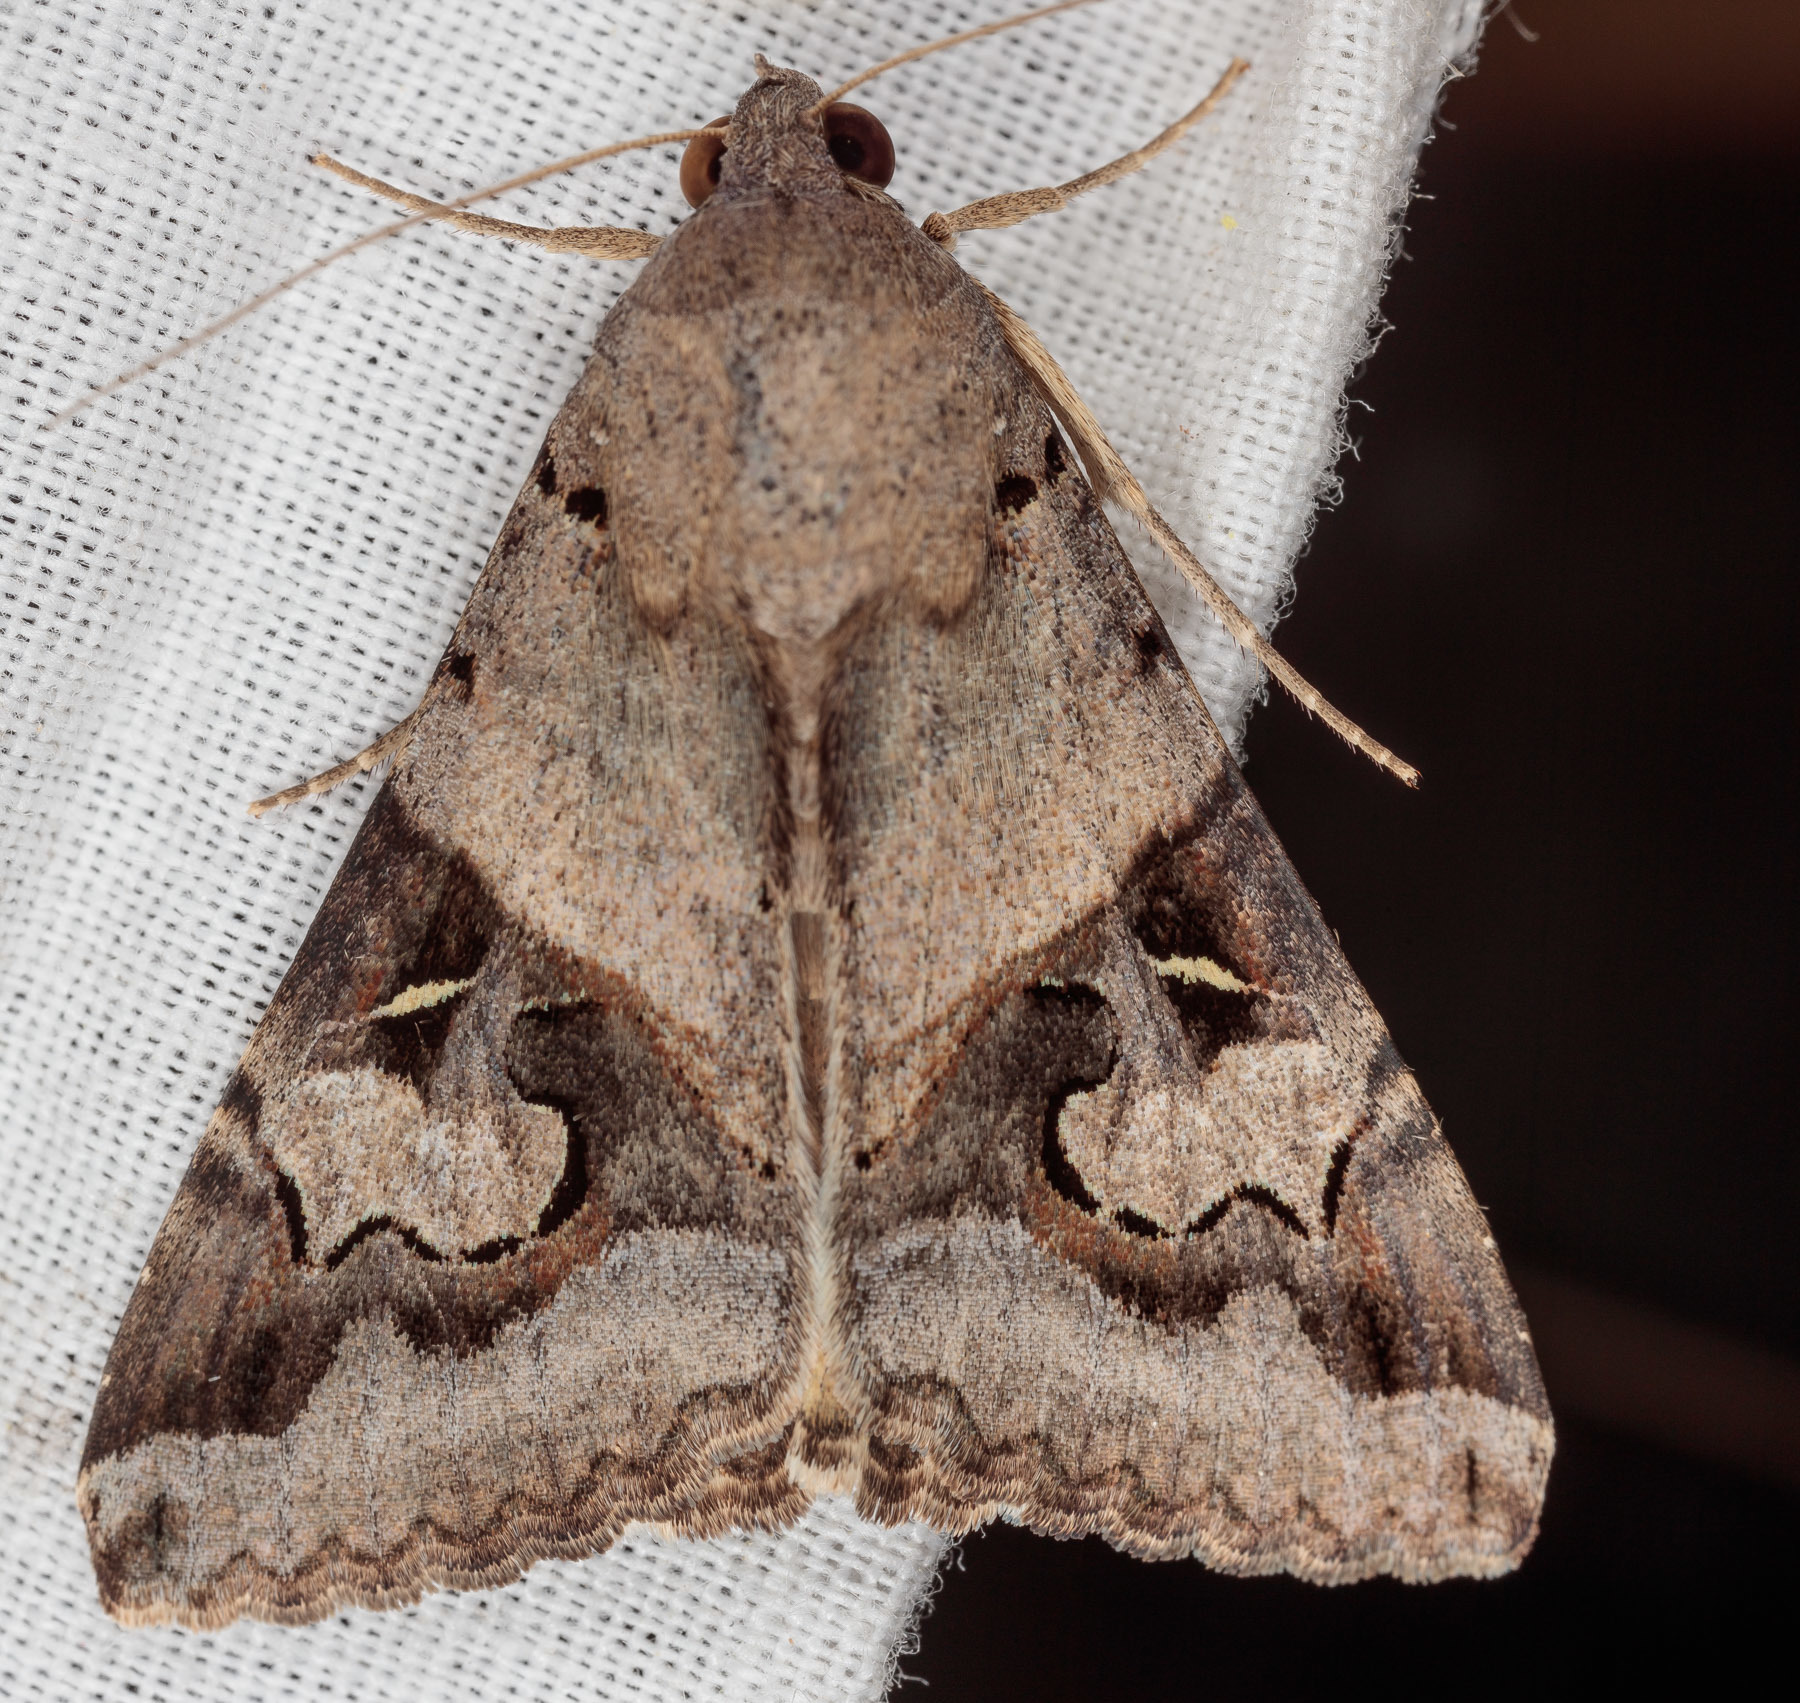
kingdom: Animalia
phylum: Arthropoda
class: Insecta
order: Lepidoptera
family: Erebidae
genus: Melipotis
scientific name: Melipotis indomita
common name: Moth
